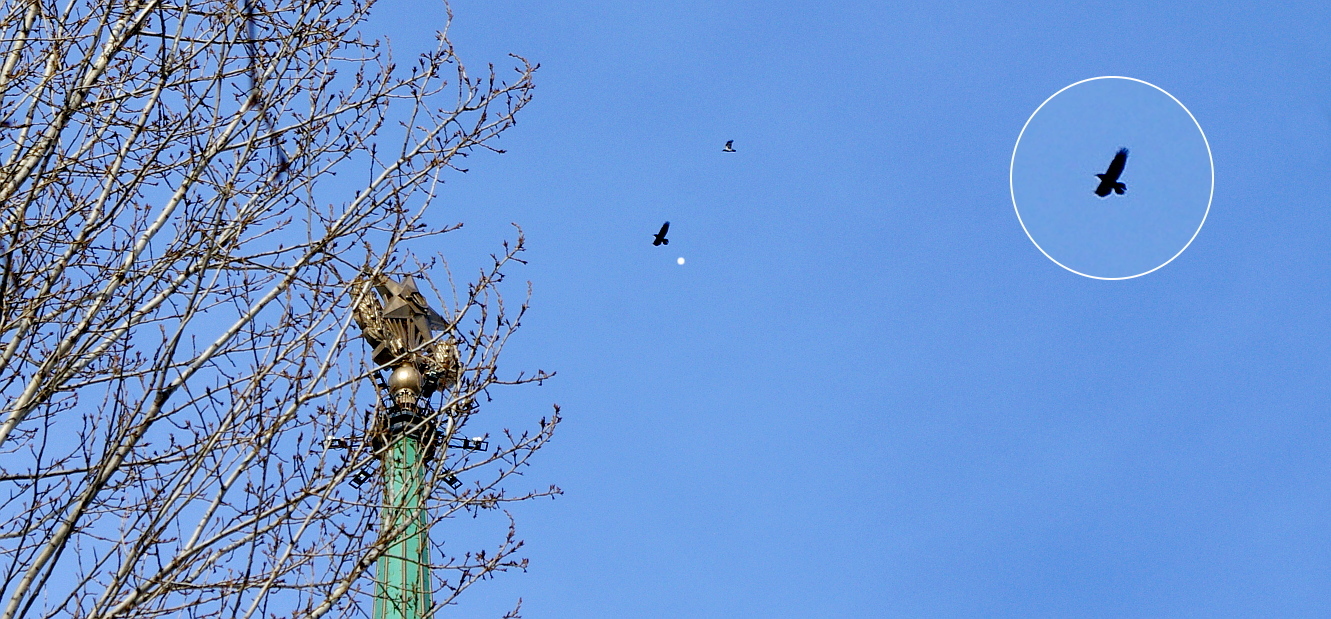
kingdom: Animalia
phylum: Chordata
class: Aves
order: Passeriformes
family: Corvidae
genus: Corvus
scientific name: Corvus corax
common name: Common raven
